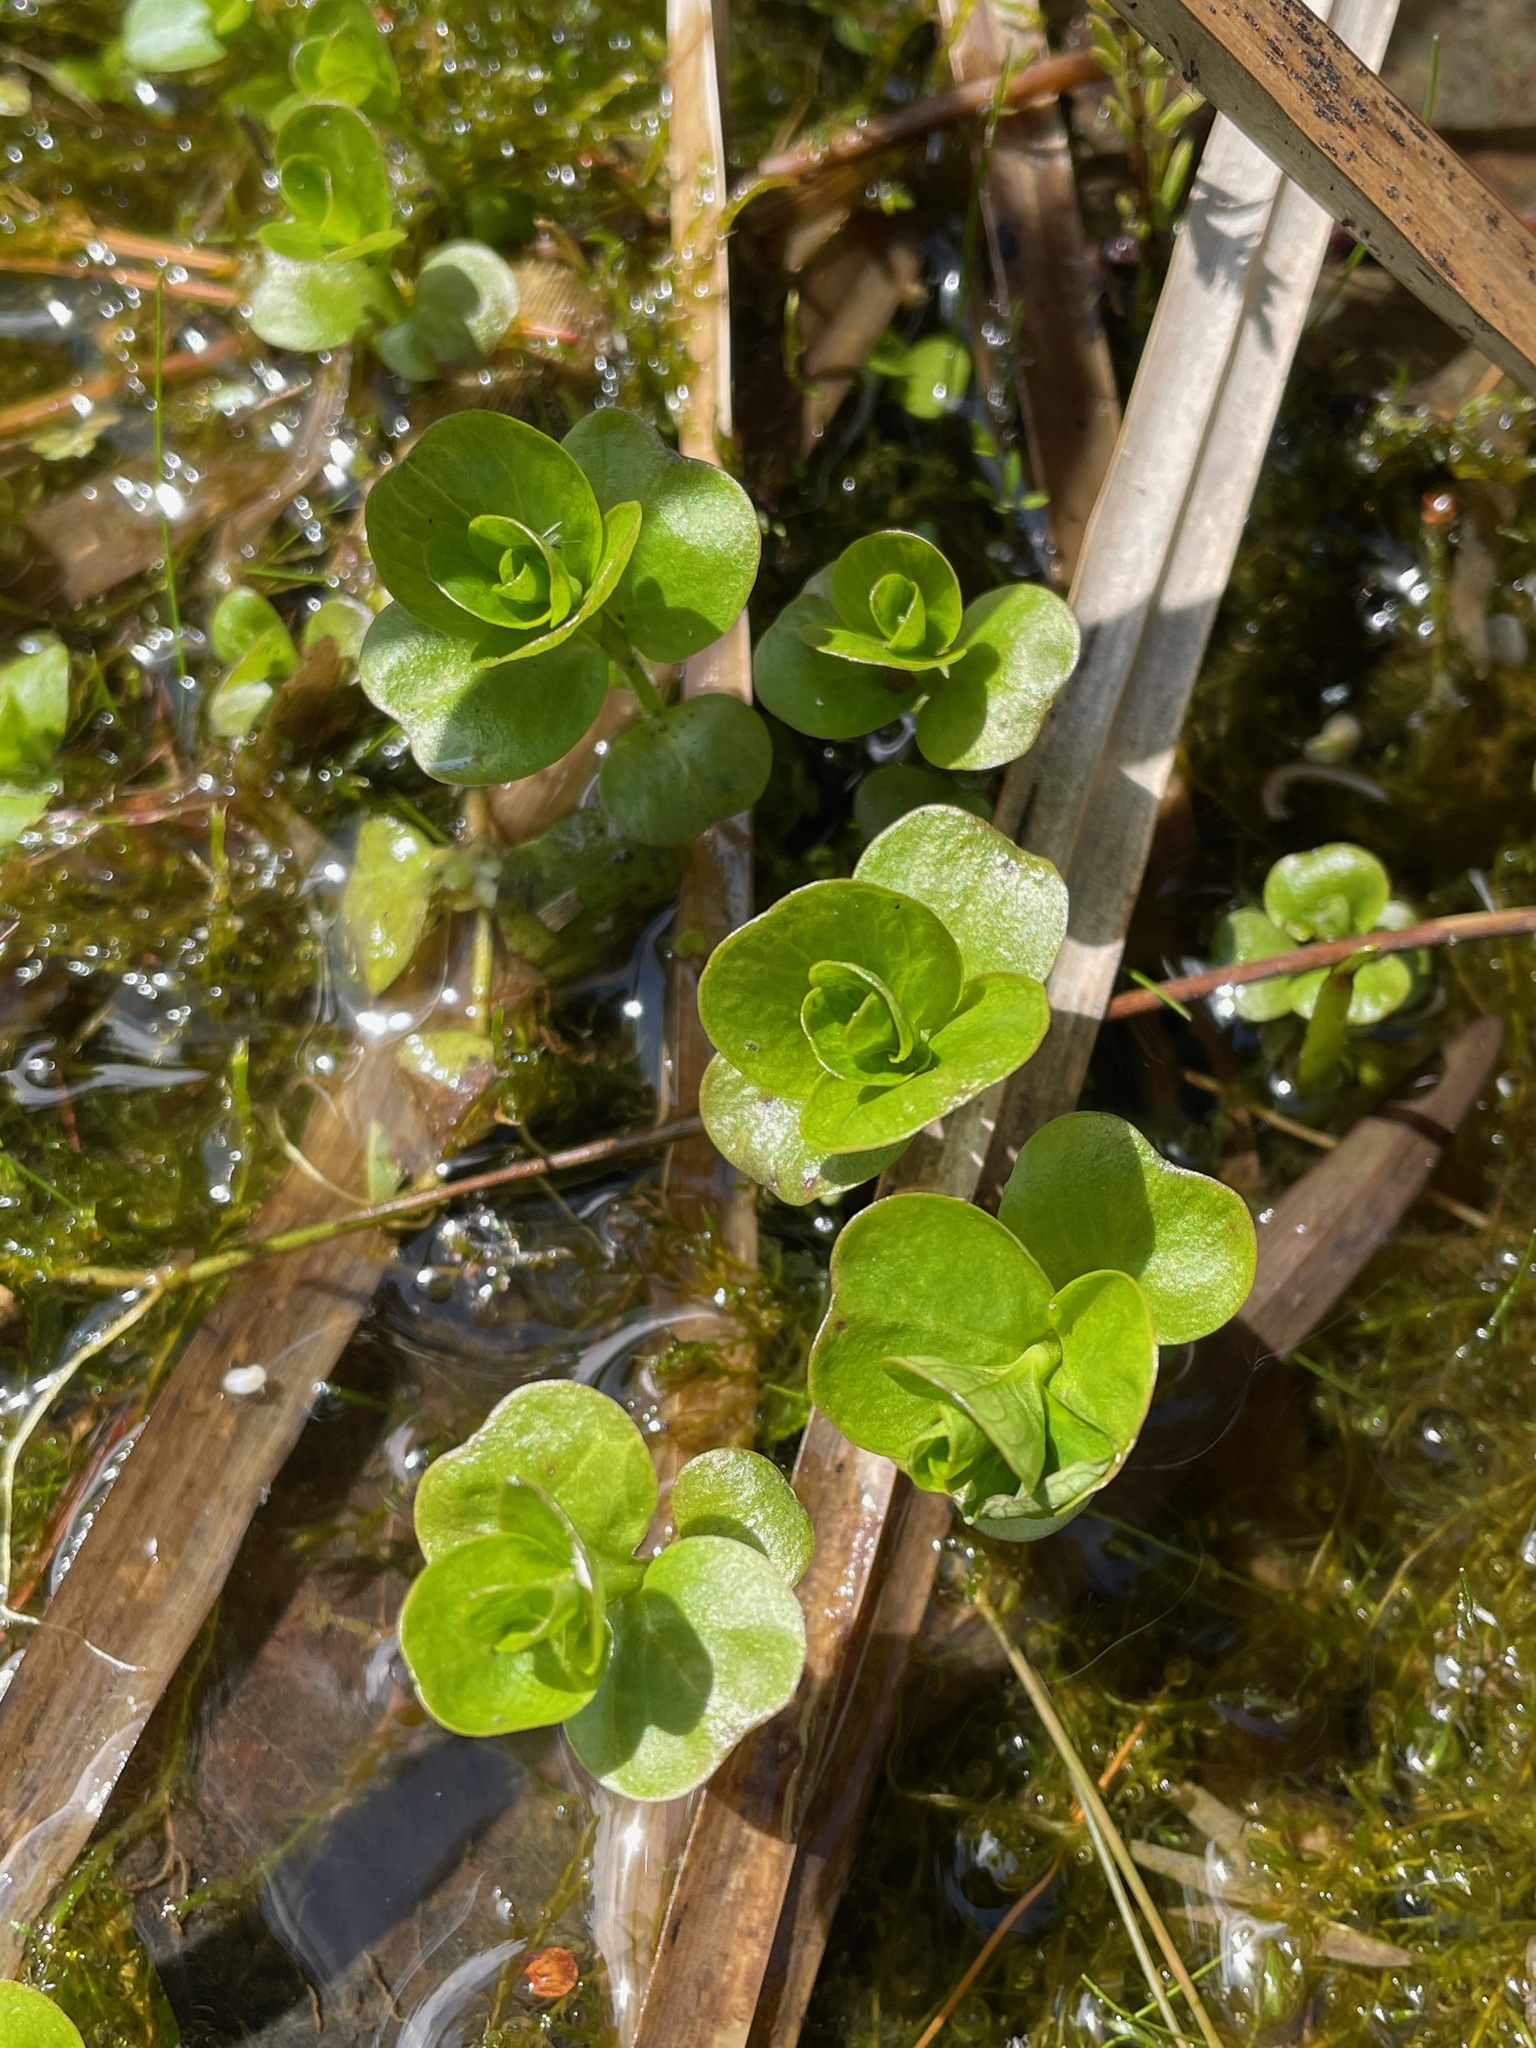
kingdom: Plantae
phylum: Tracheophyta
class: Magnoliopsida
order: Ericales
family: Primulaceae
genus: Lysimachia
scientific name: Lysimachia nummularia
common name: Moneywort
